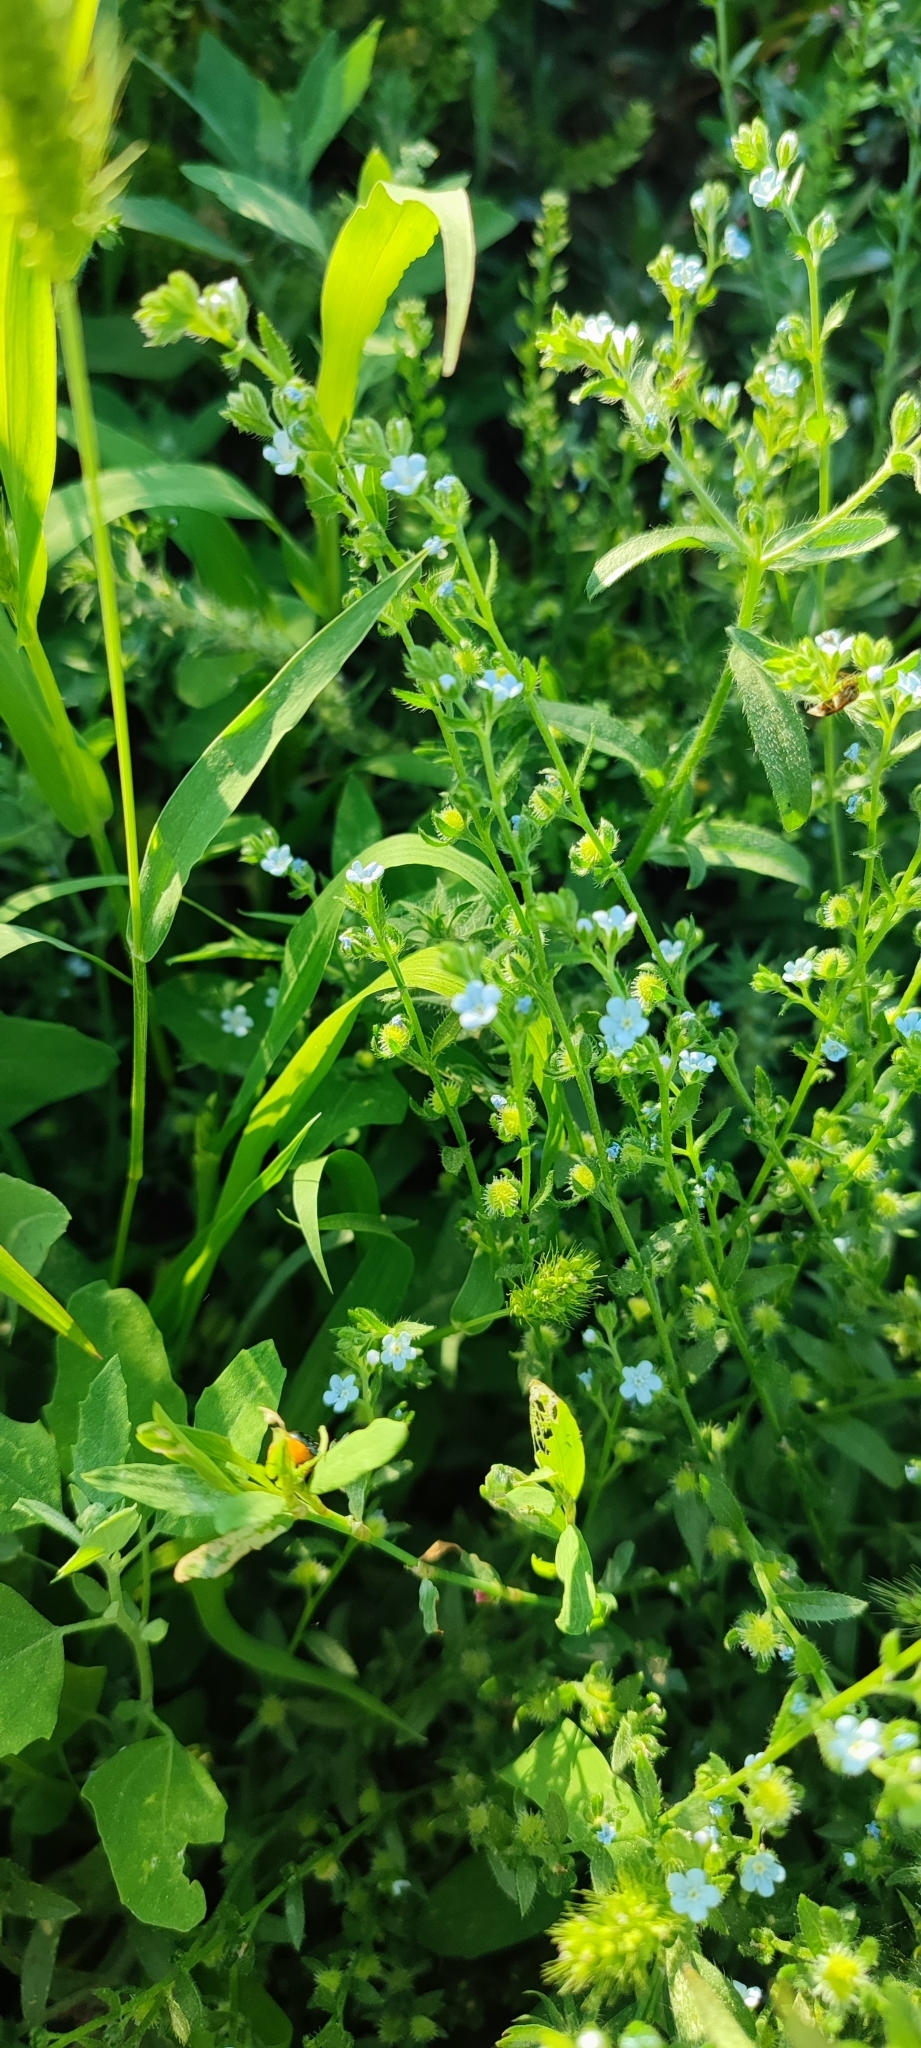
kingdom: Plantae
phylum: Tracheophyta
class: Magnoliopsida
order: Boraginales
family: Boraginaceae
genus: Lappula
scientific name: Lappula squarrosa
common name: European stickseed
